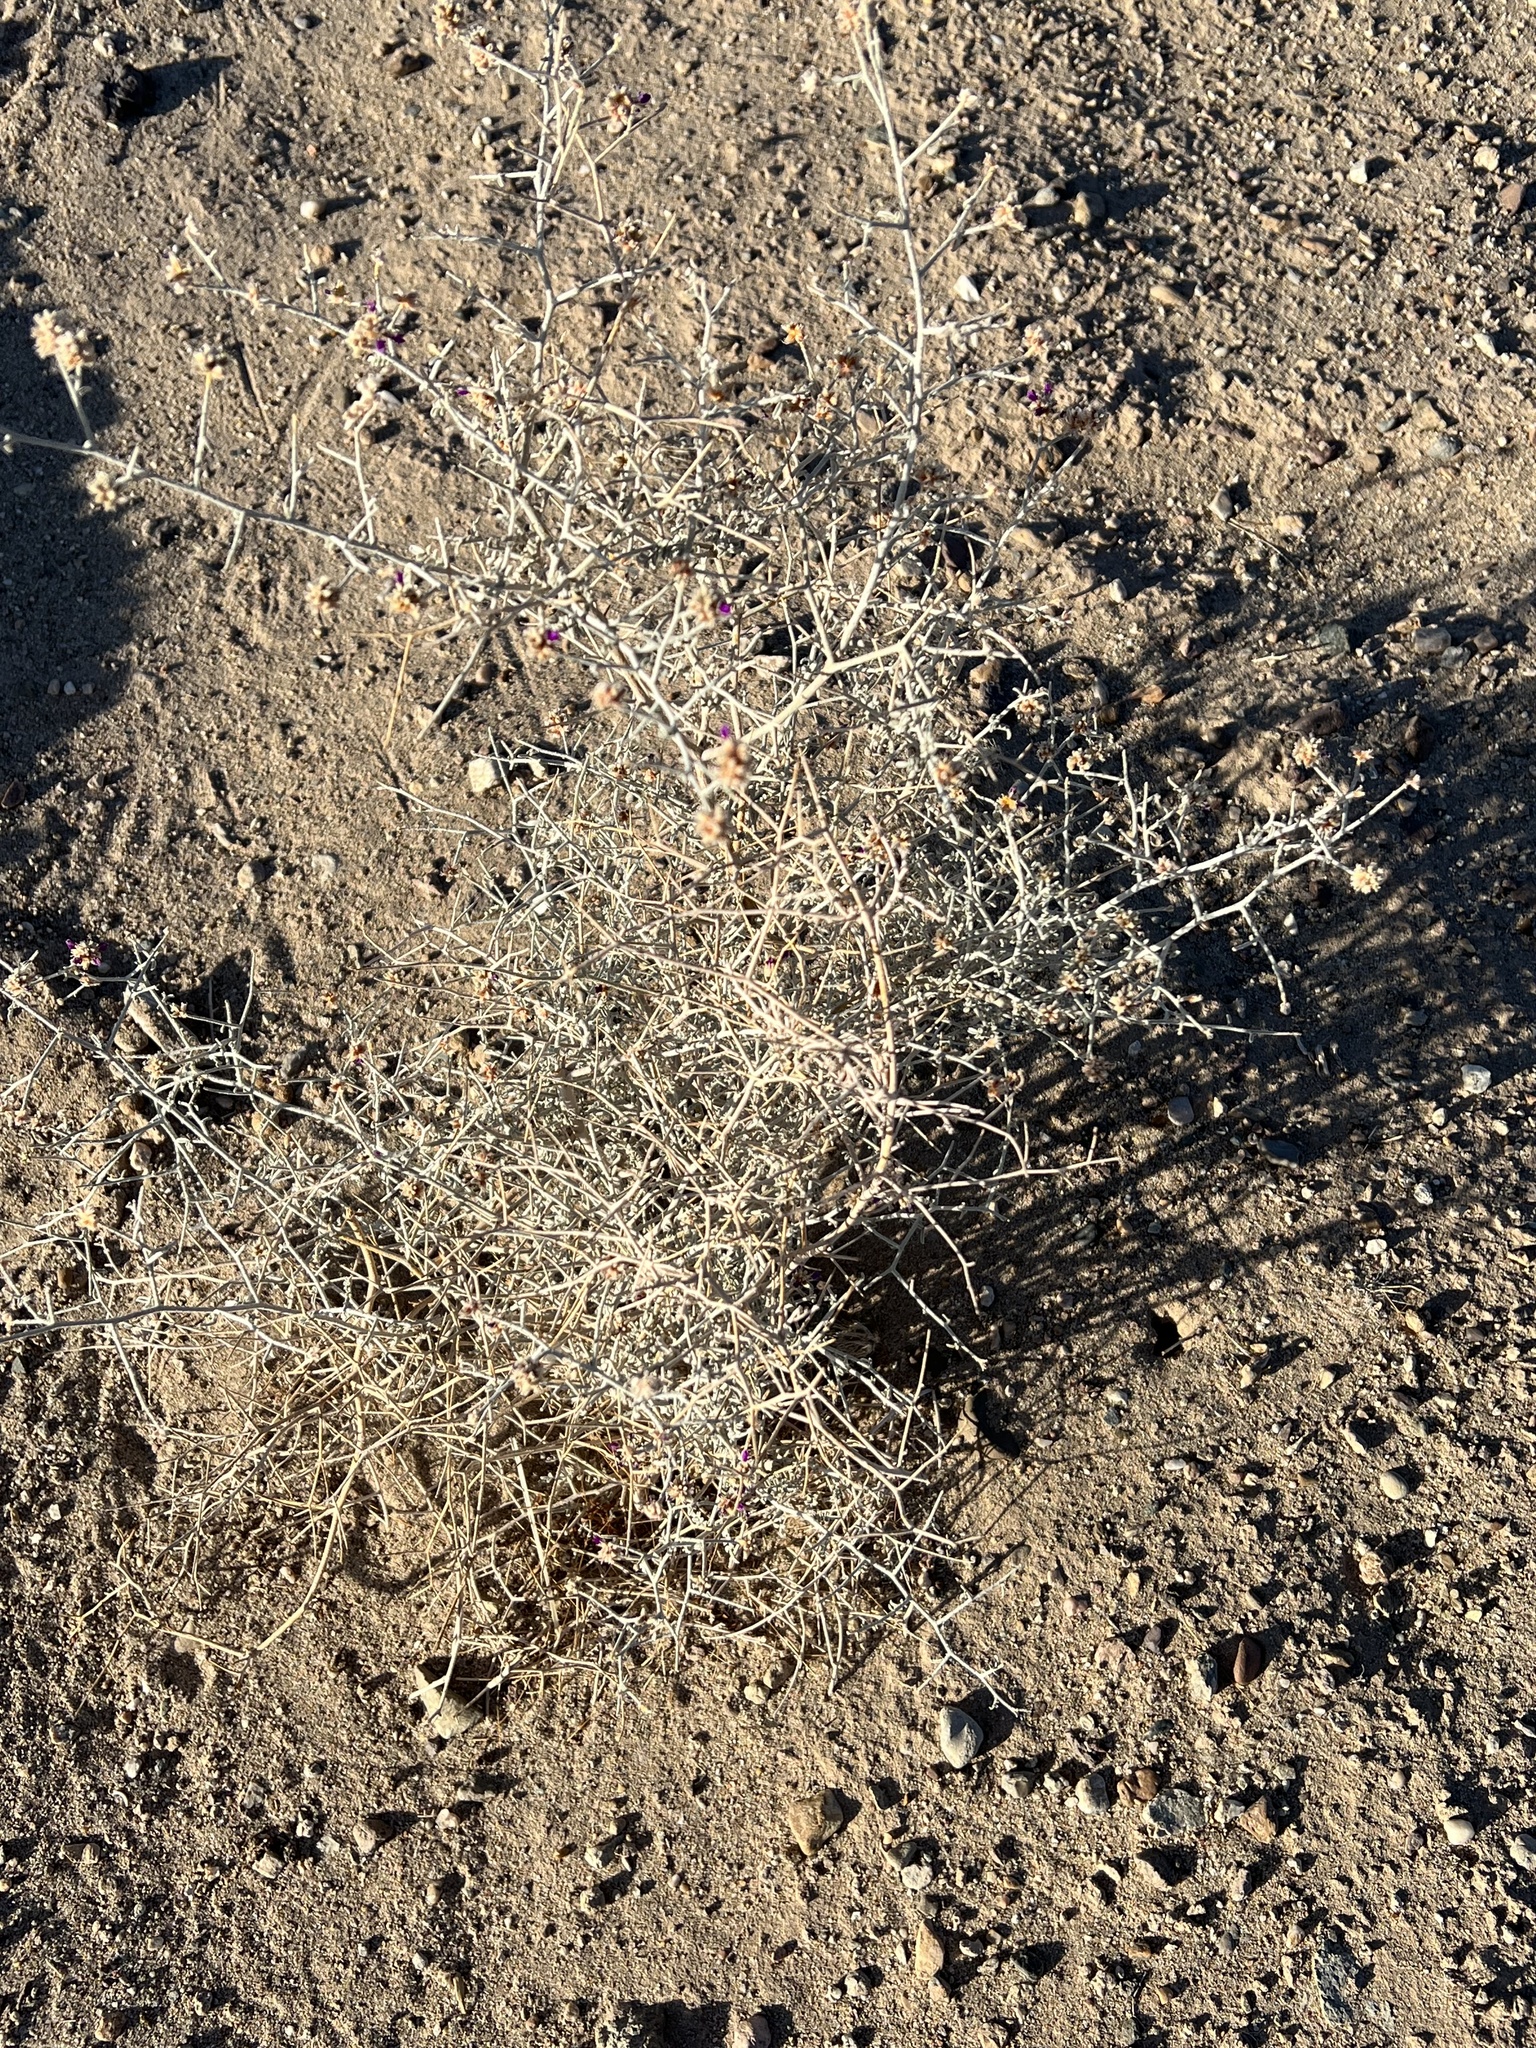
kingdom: Plantae
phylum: Tracheophyta
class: Magnoliopsida
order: Fabales
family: Fabaceae
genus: Psorothamnus
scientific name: Psorothamnus emoryi
